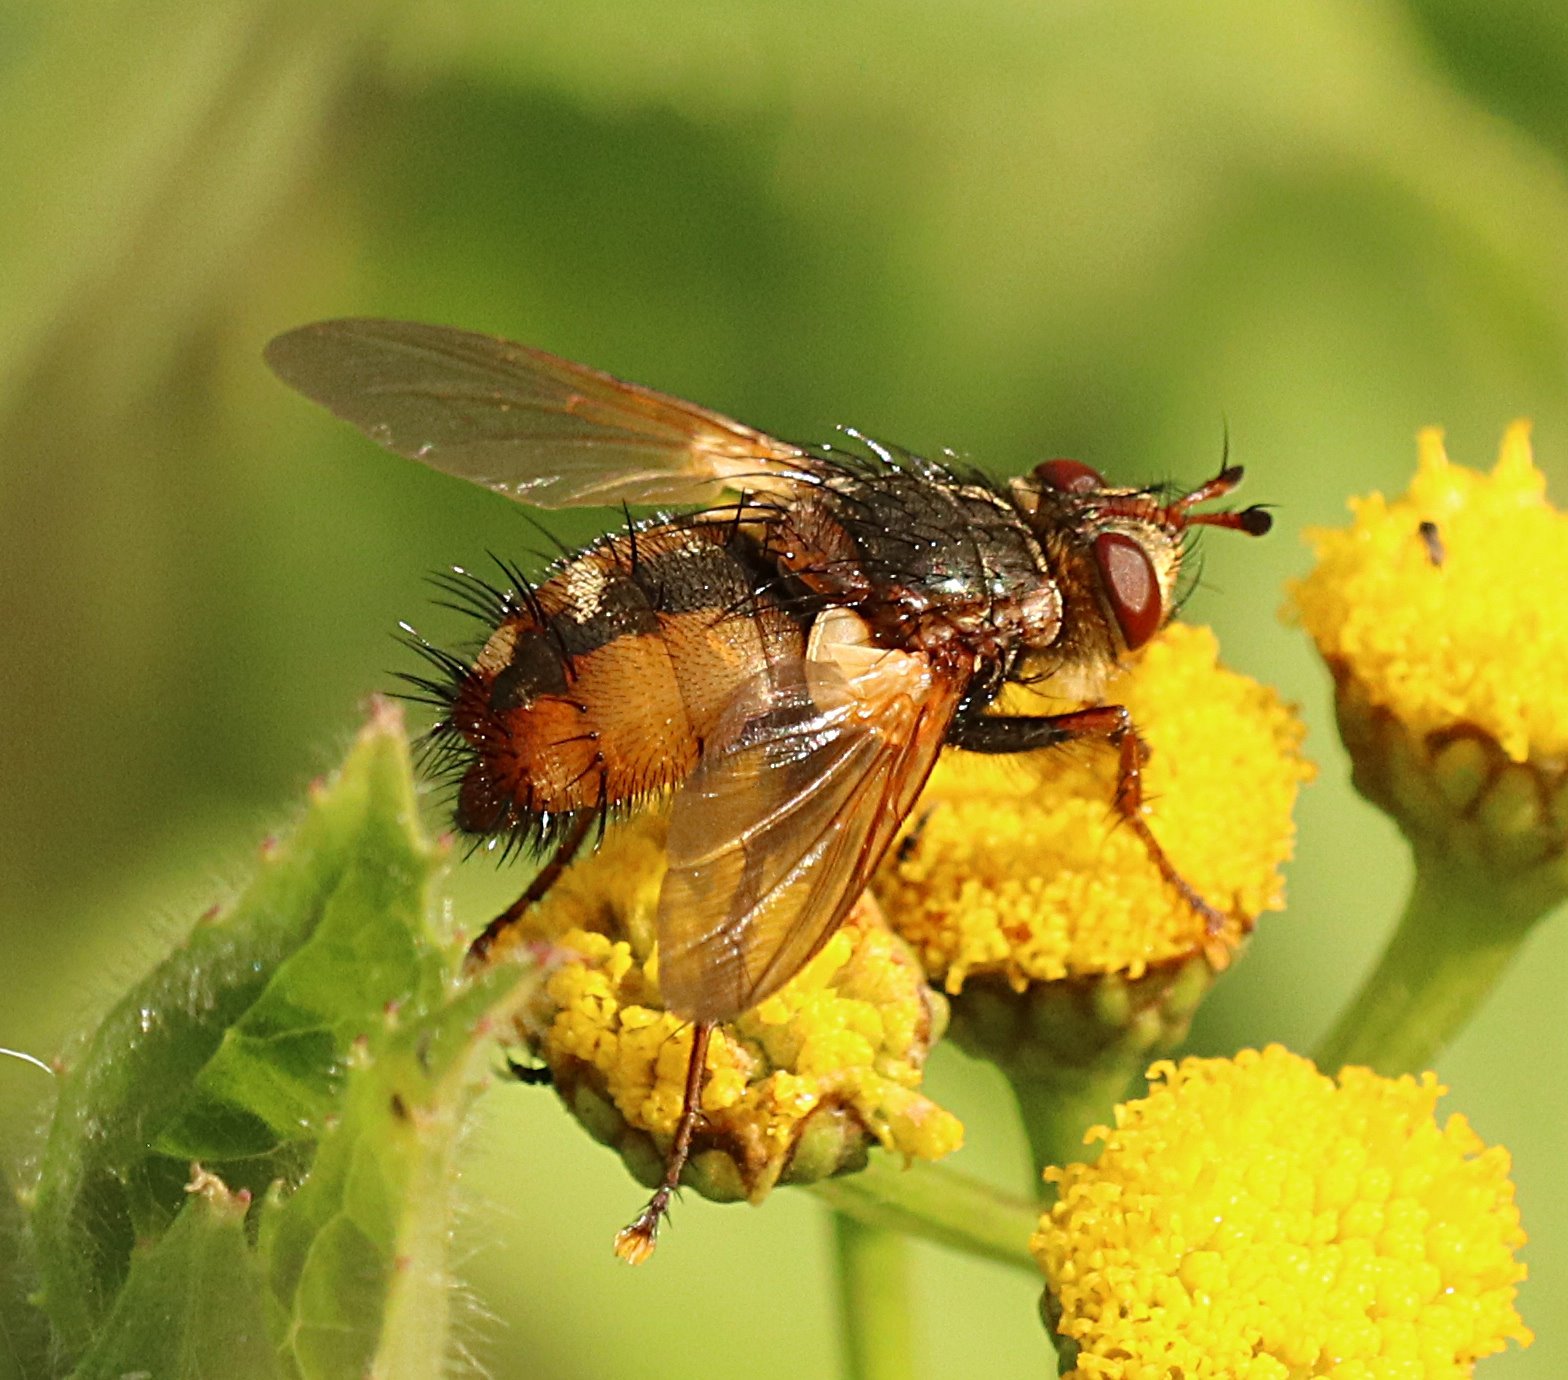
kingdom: Animalia
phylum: Arthropoda
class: Insecta
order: Diptera
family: Tachinidae
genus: Tachina
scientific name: Tachina fera
